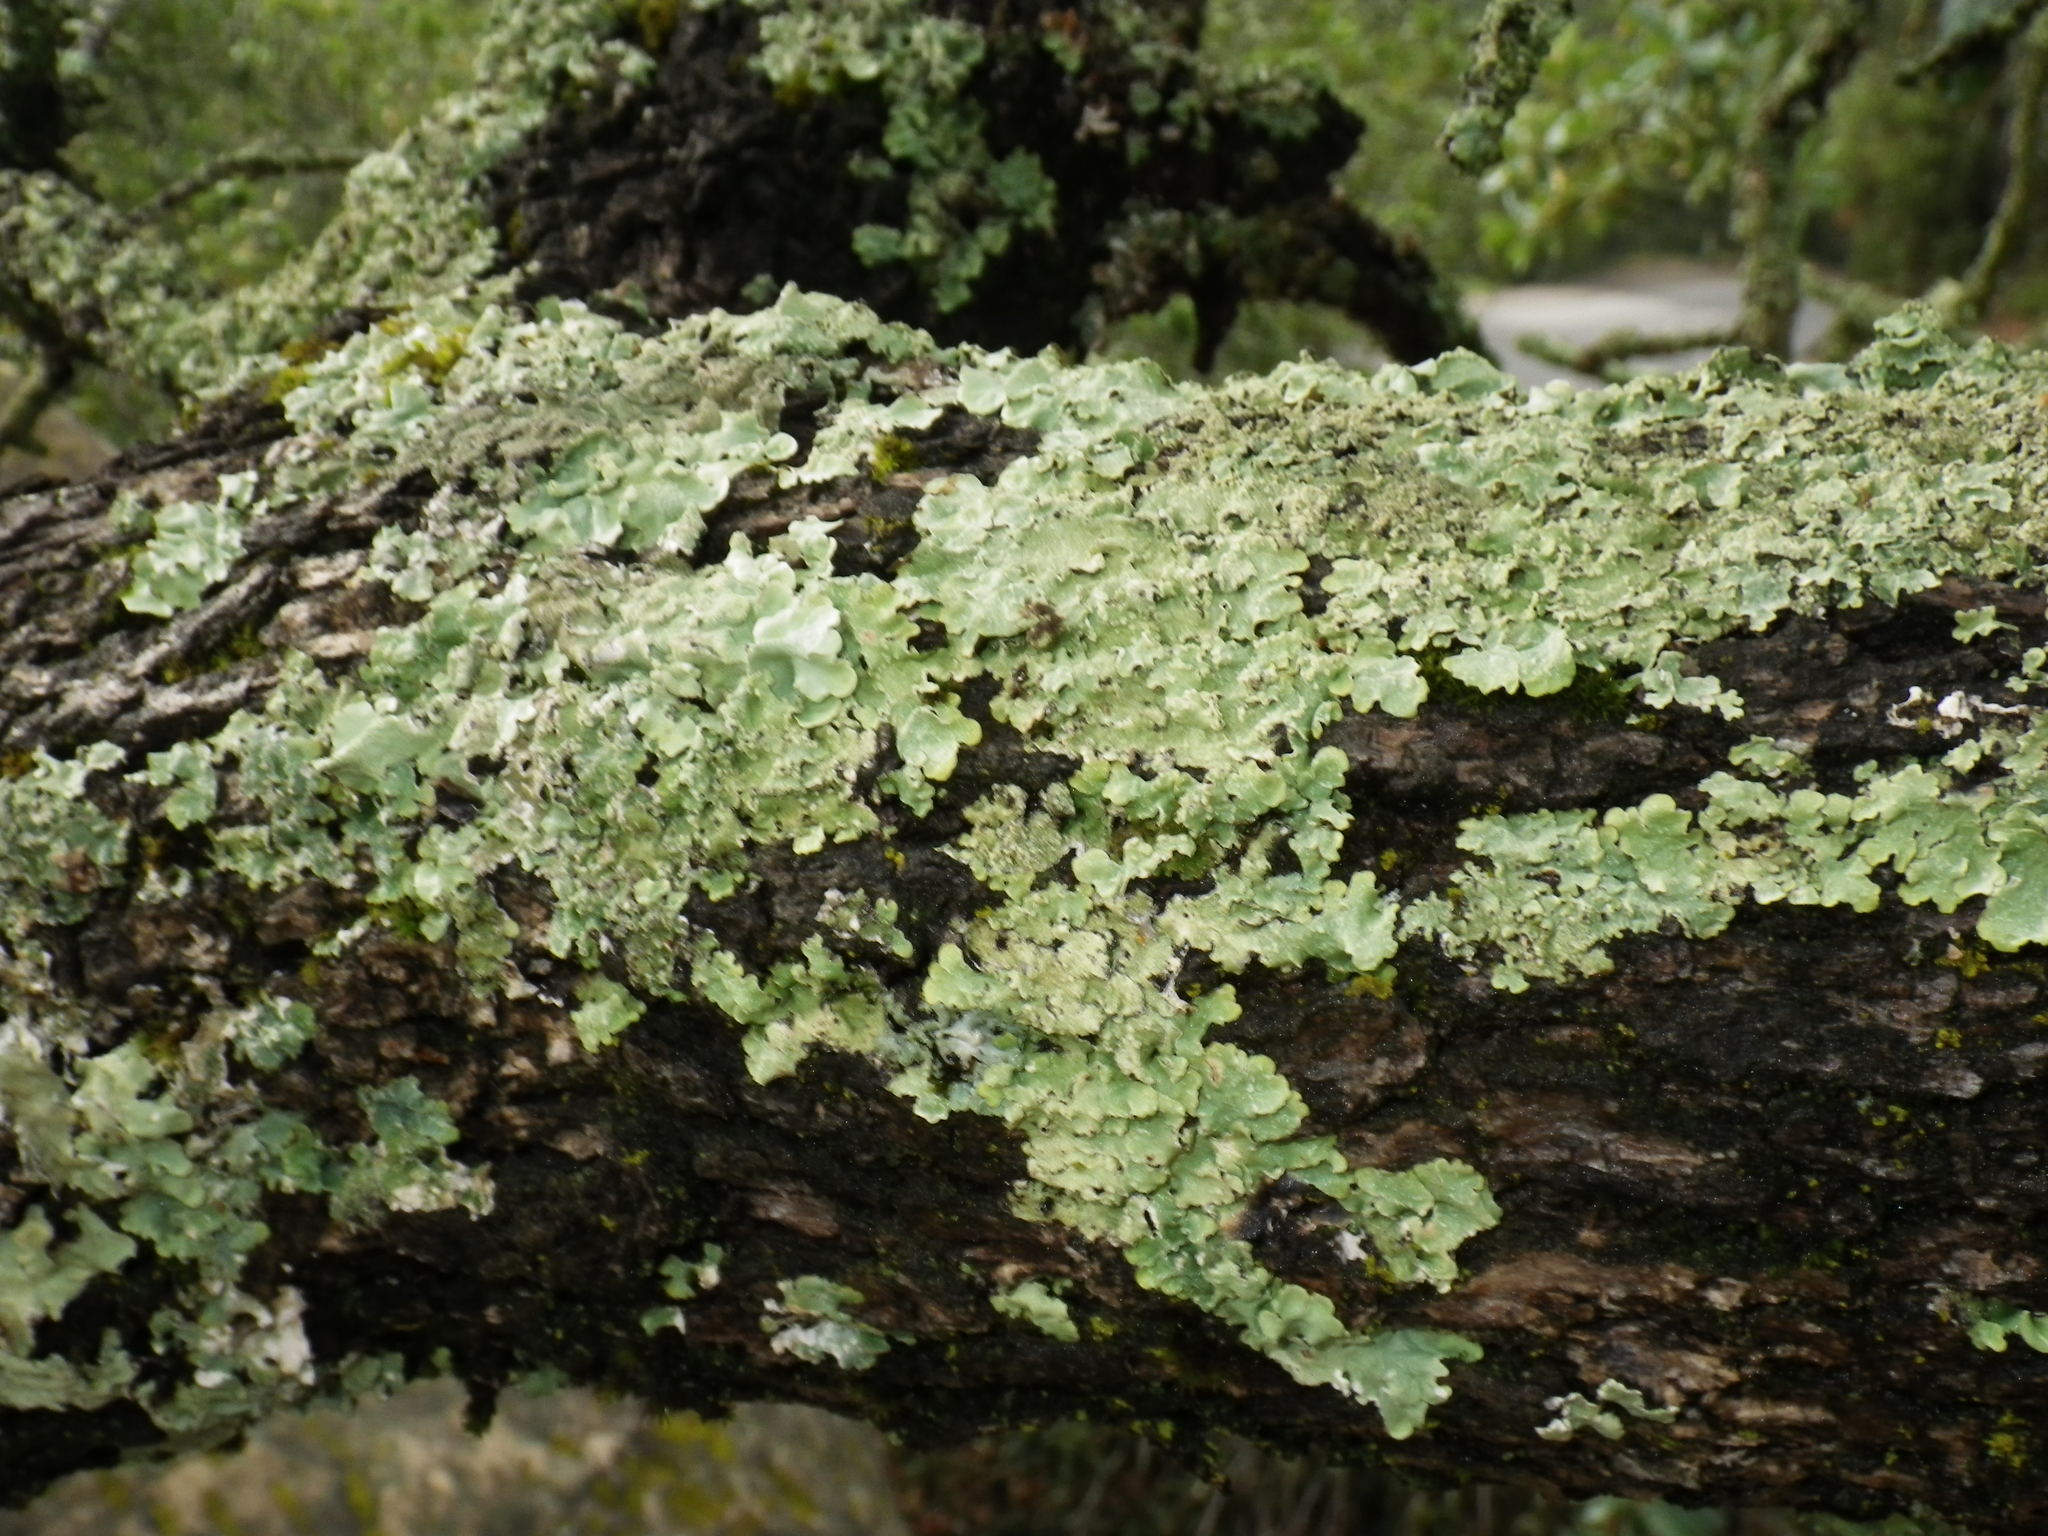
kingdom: Fungi
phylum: Ascomycota
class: Lecanoromycetes
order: Lecanorales
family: Parmeliaceae
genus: Flavoparmelia
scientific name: Flavoparmelia caperata
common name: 40-mile per hour lichen
